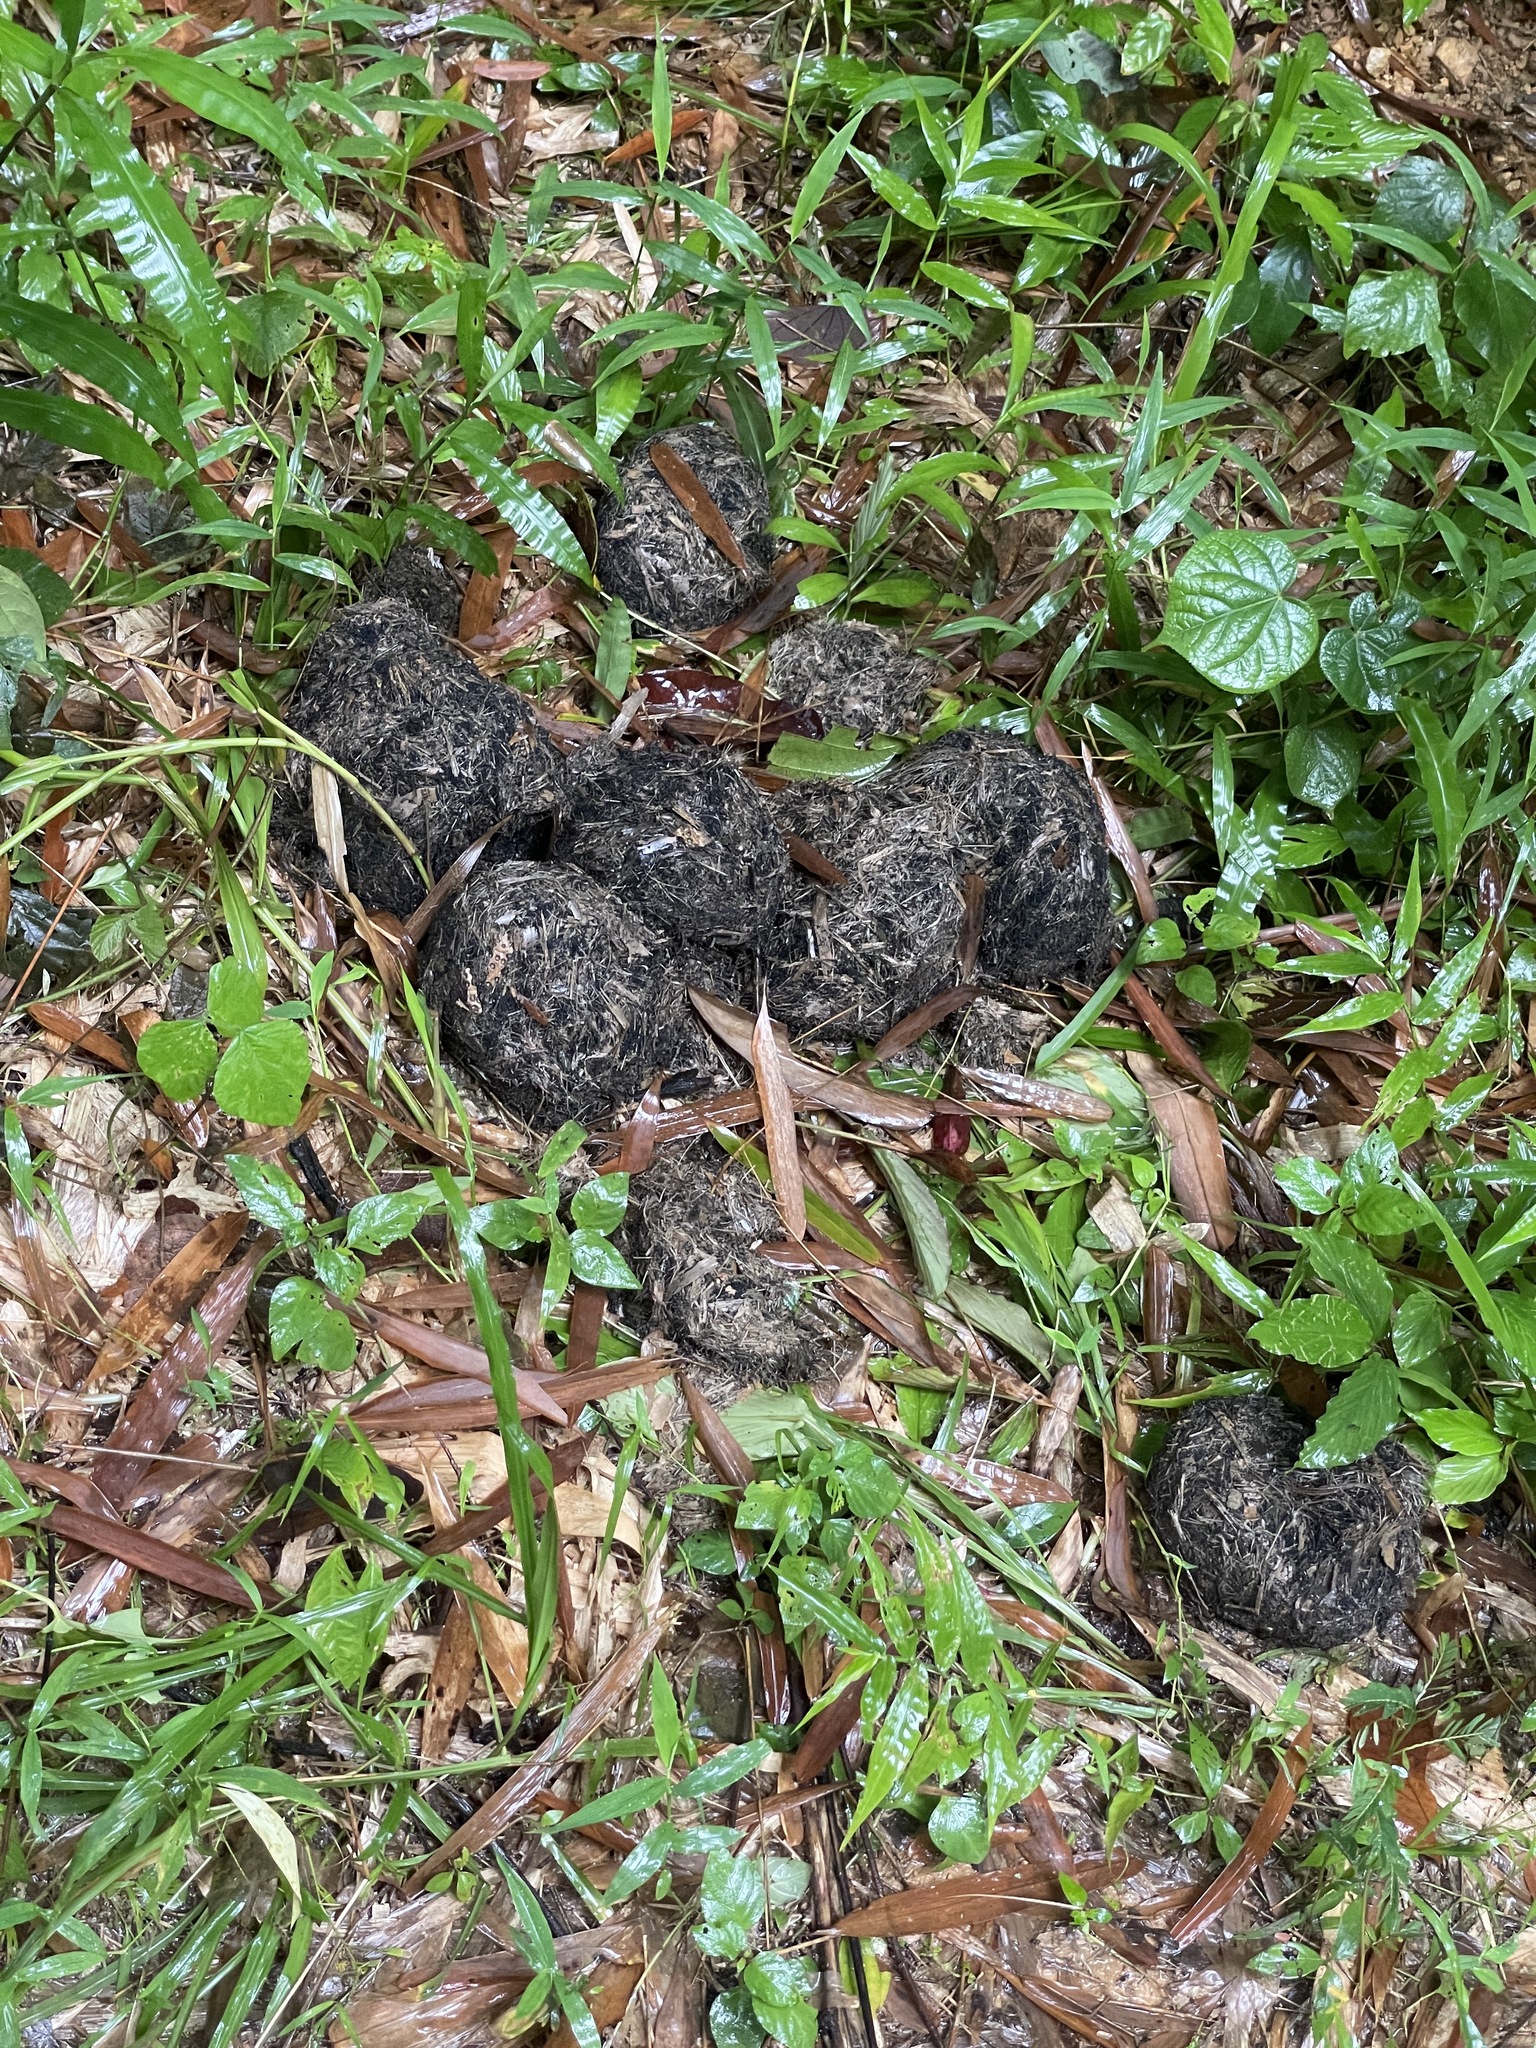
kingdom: Animalia
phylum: Chordata
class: Mammalia
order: Proboscidea
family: Elephantidae
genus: Elephas
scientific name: Elephas maximus
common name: Asian elephant
